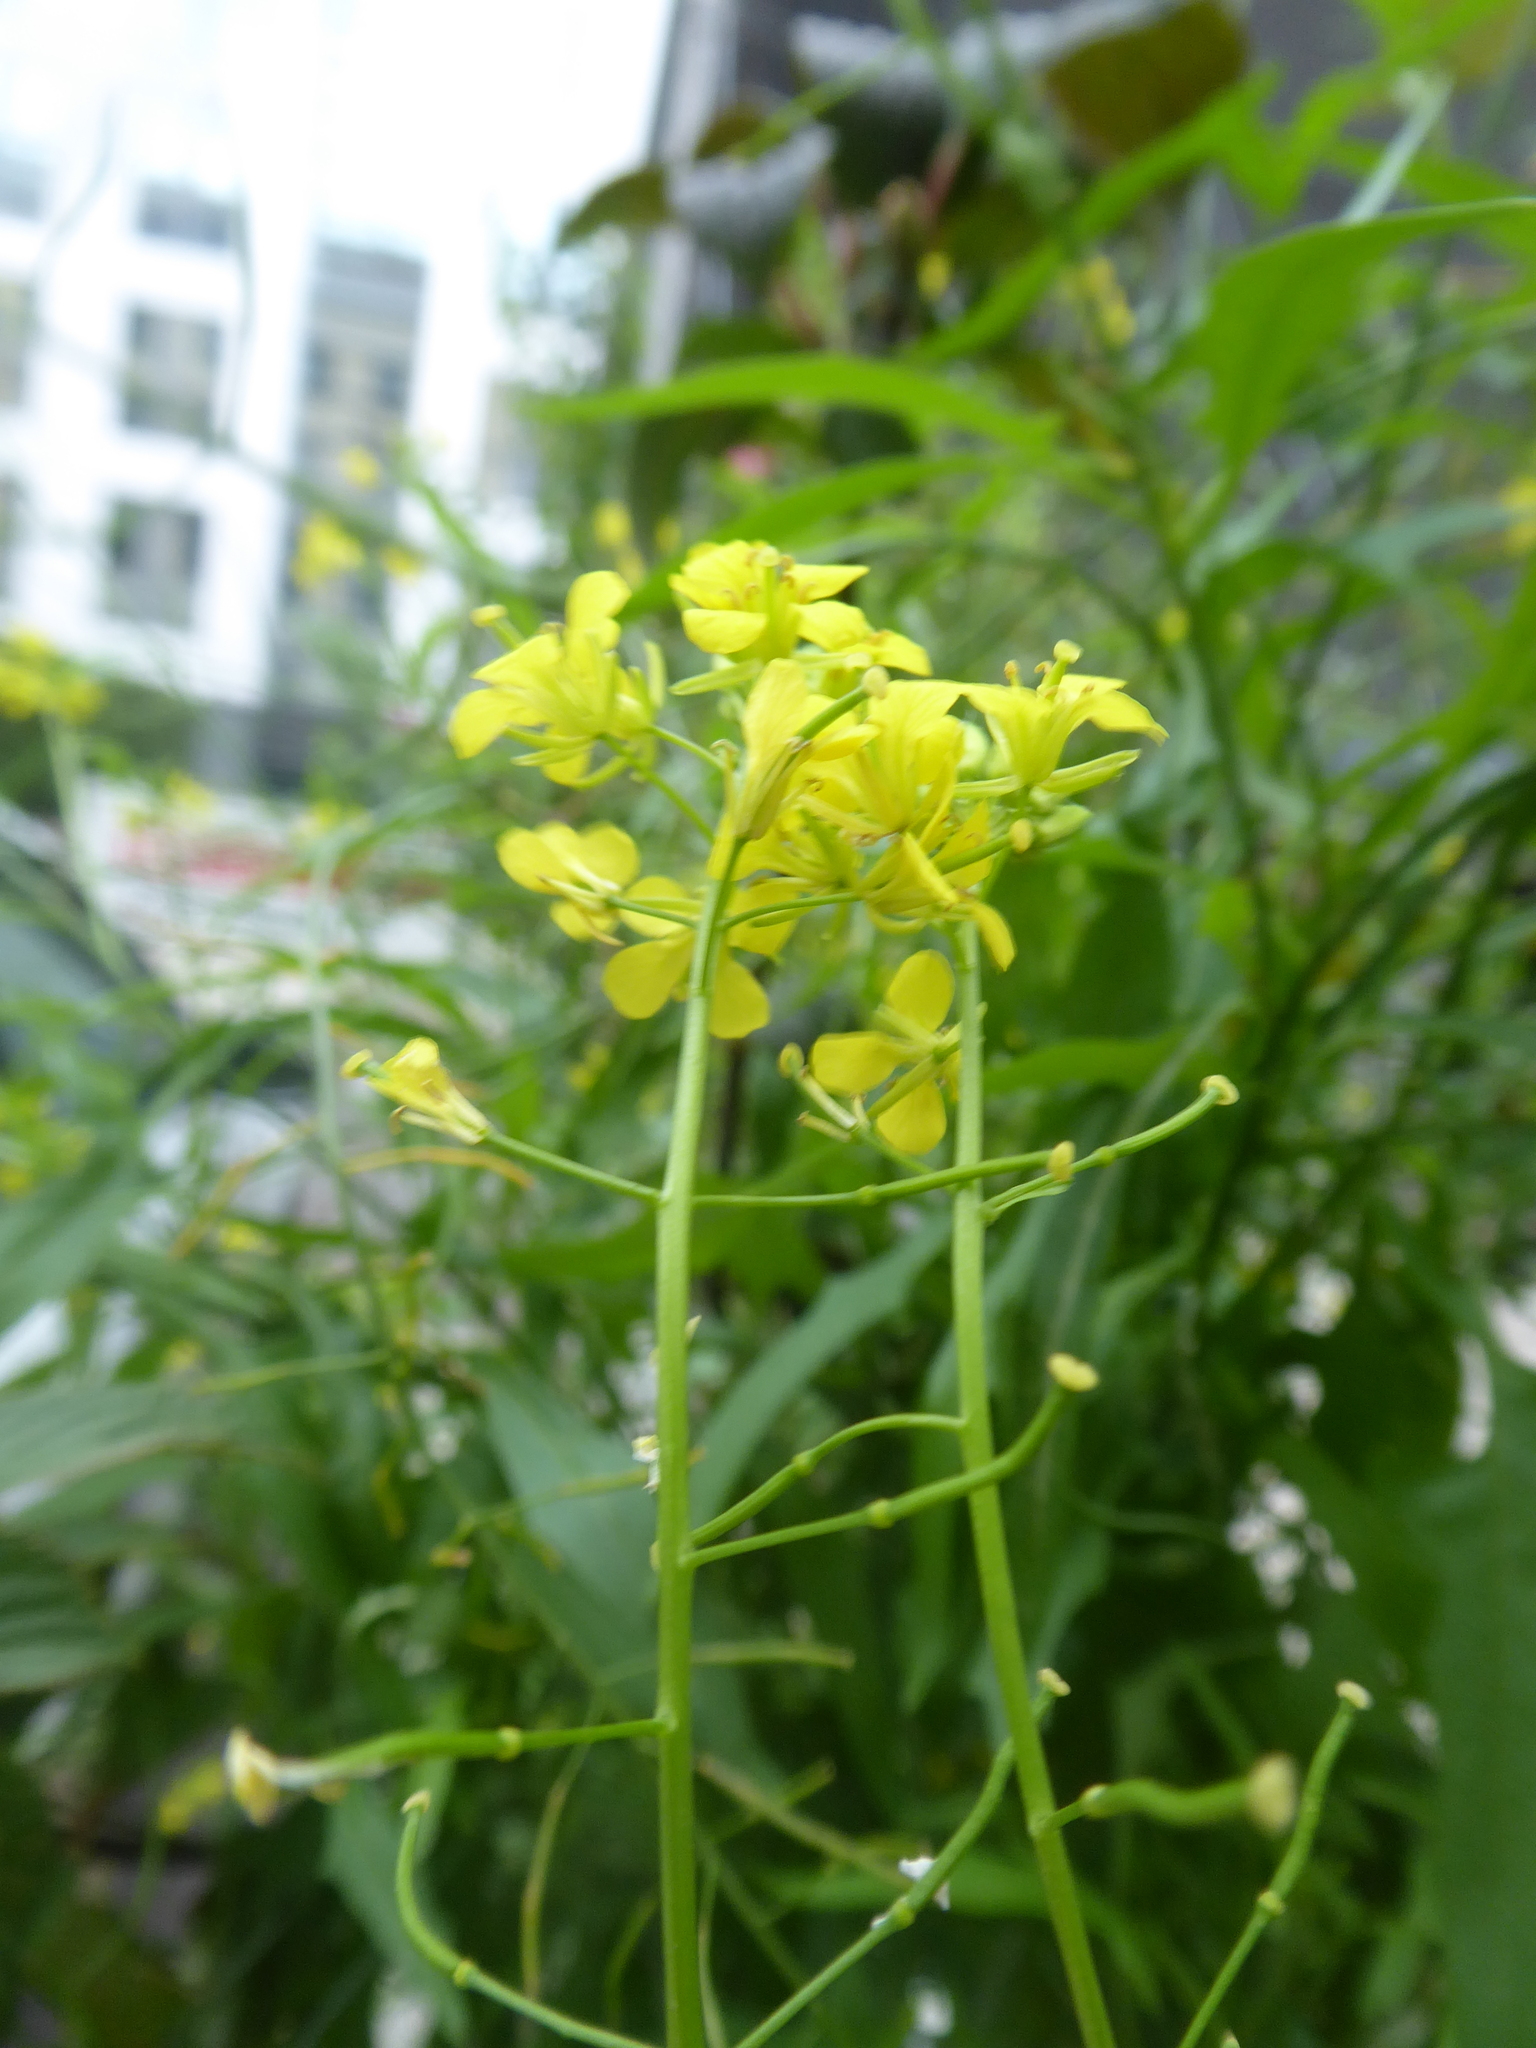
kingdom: Plantae
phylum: Tracheophyta
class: Magnoliopsida
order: Brassicales
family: Brassicaceae
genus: Sisymbrium
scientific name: Sisymbrium loeselii
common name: False london-rocket
